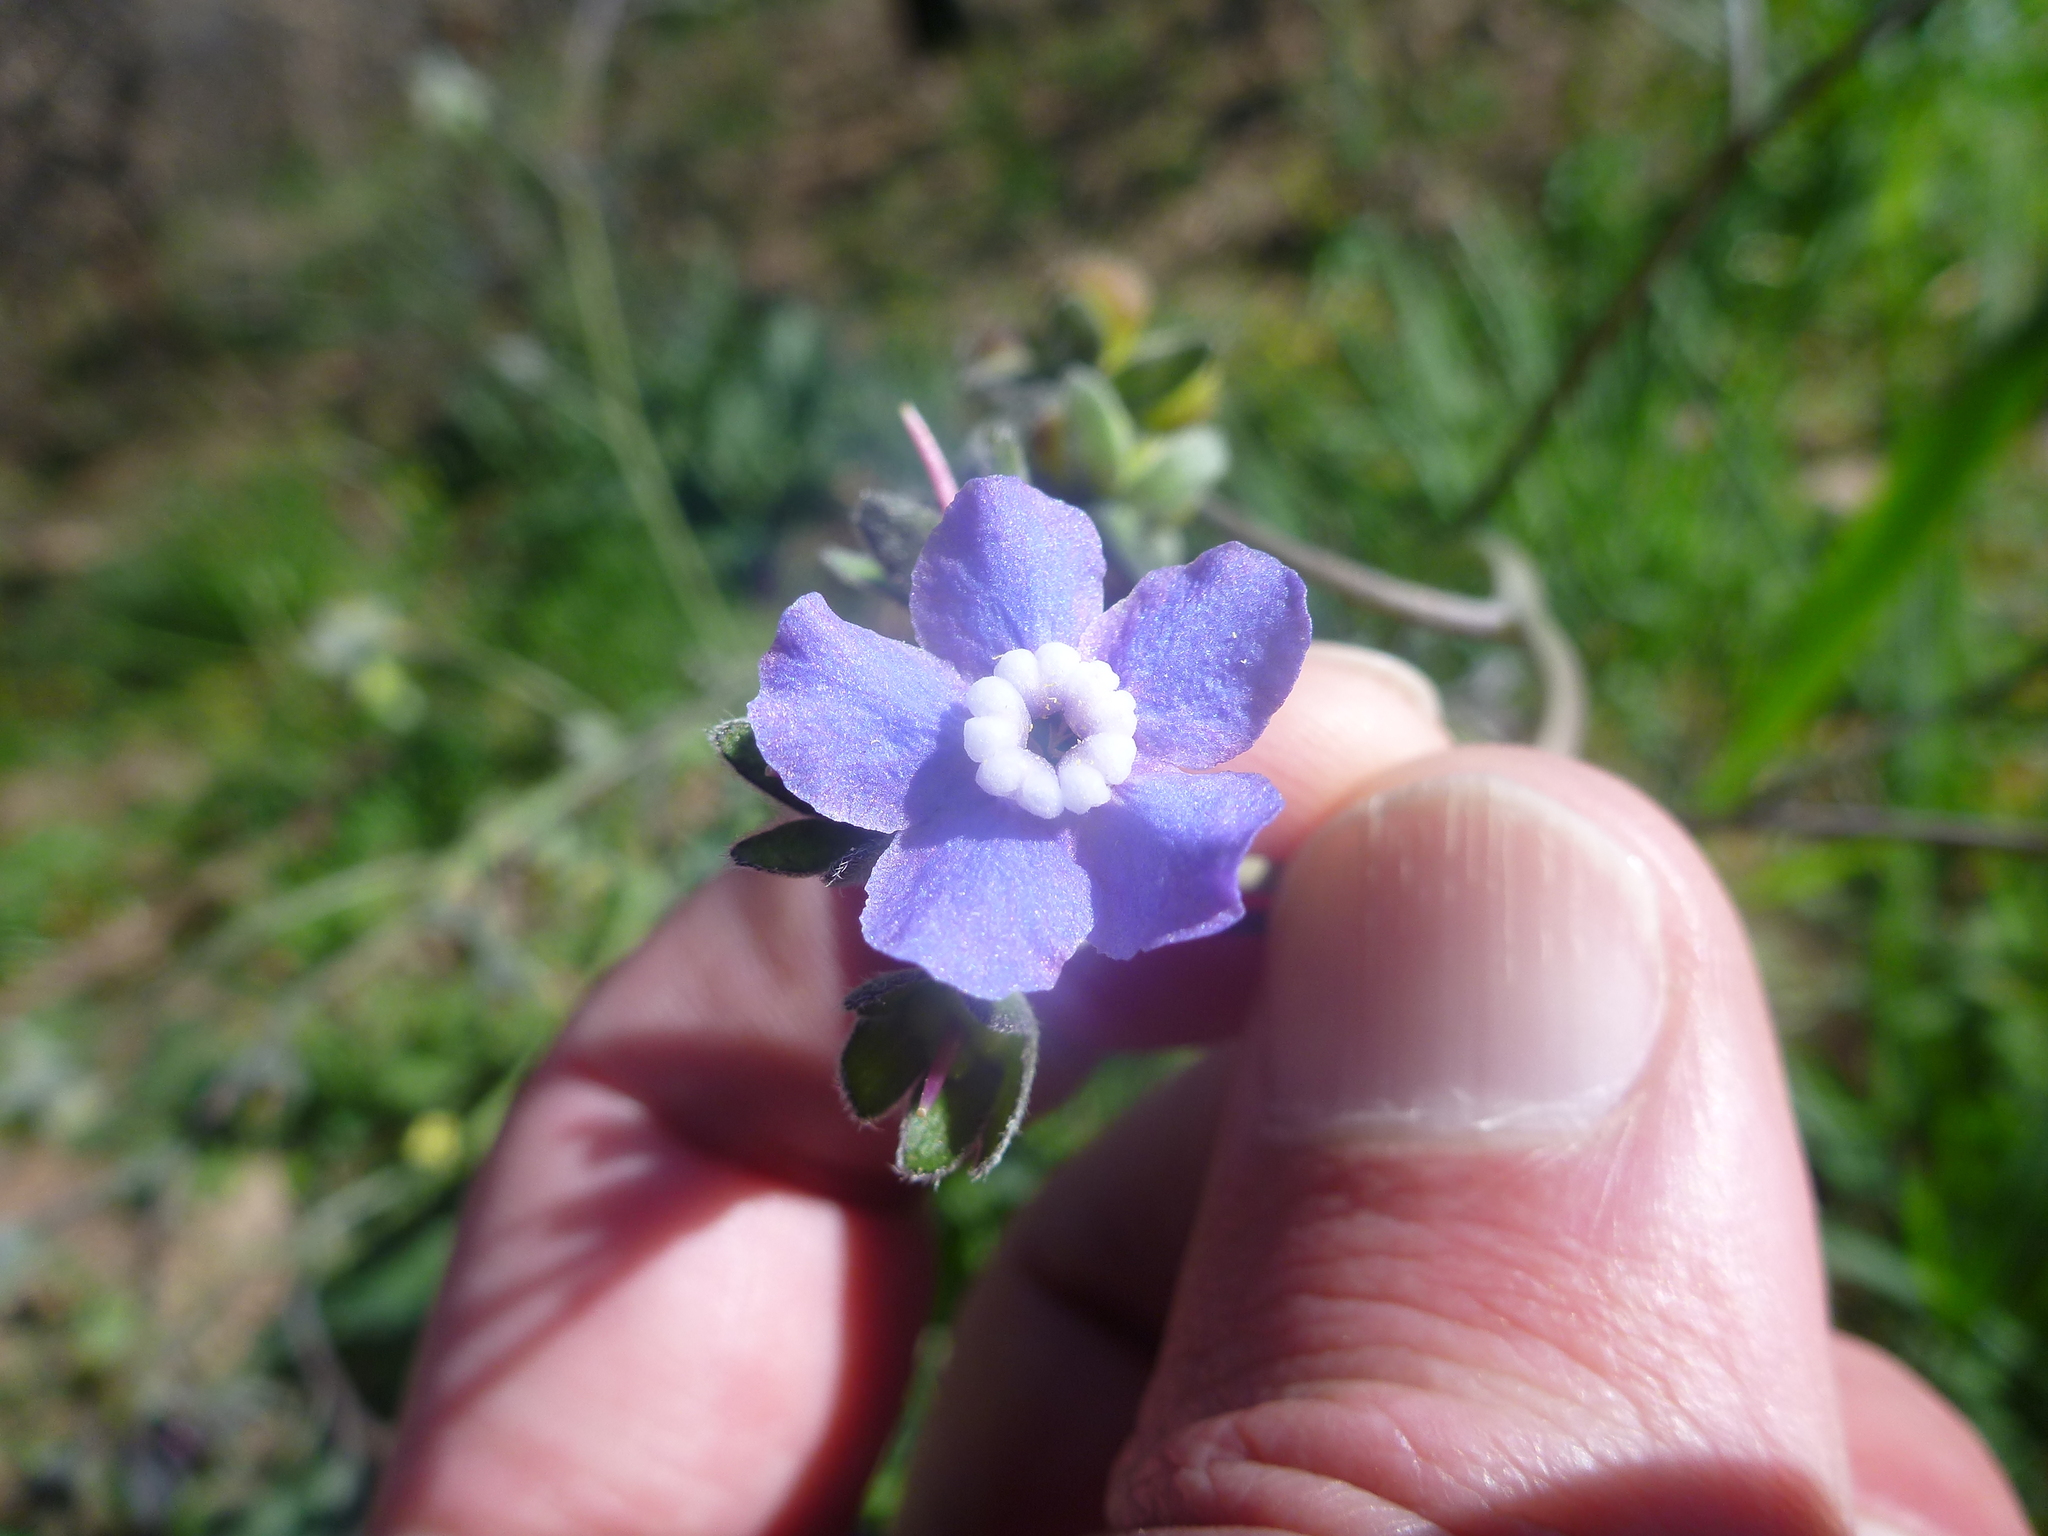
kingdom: Plantae
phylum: Tracheophyta
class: Magnoliopsida
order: Boraginales
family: Boraginaceae
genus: Adelinia
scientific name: Adelinia grande
